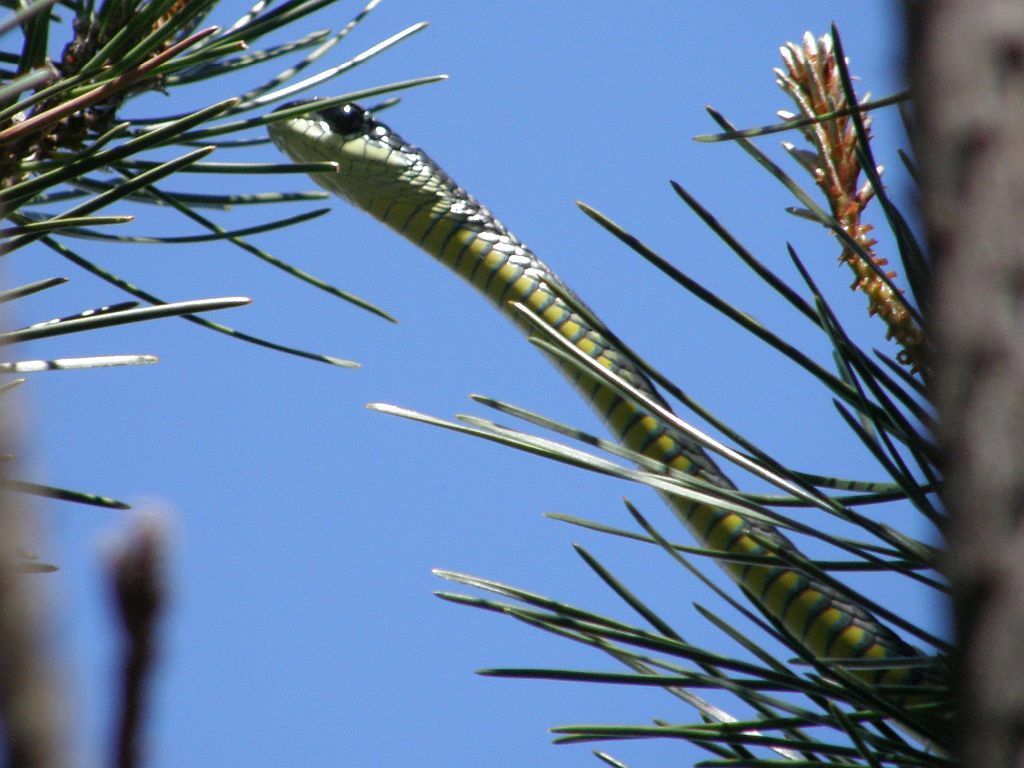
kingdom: Animalia
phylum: Chordata
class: Squamata
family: Colubridae
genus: Dispholidus
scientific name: Dispholidus typus
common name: Boomslang
